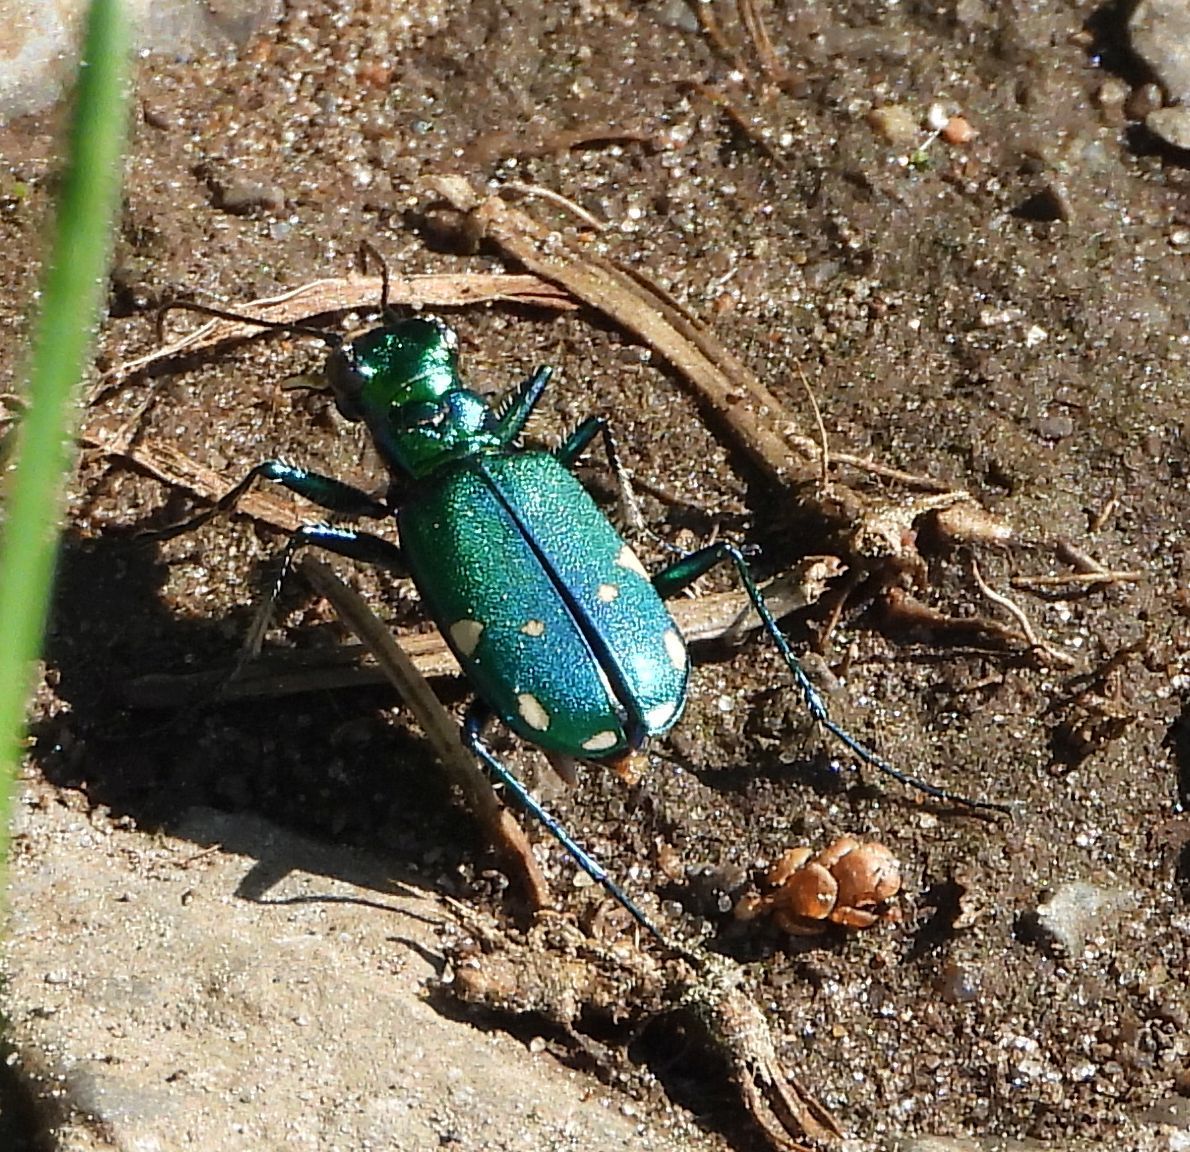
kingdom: Animalia
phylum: Arthropoda
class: Insecta
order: Coleoptera
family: Carabidae
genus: Cicindela
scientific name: Cicindela sexguttata
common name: Six-spotted tiger beetle
